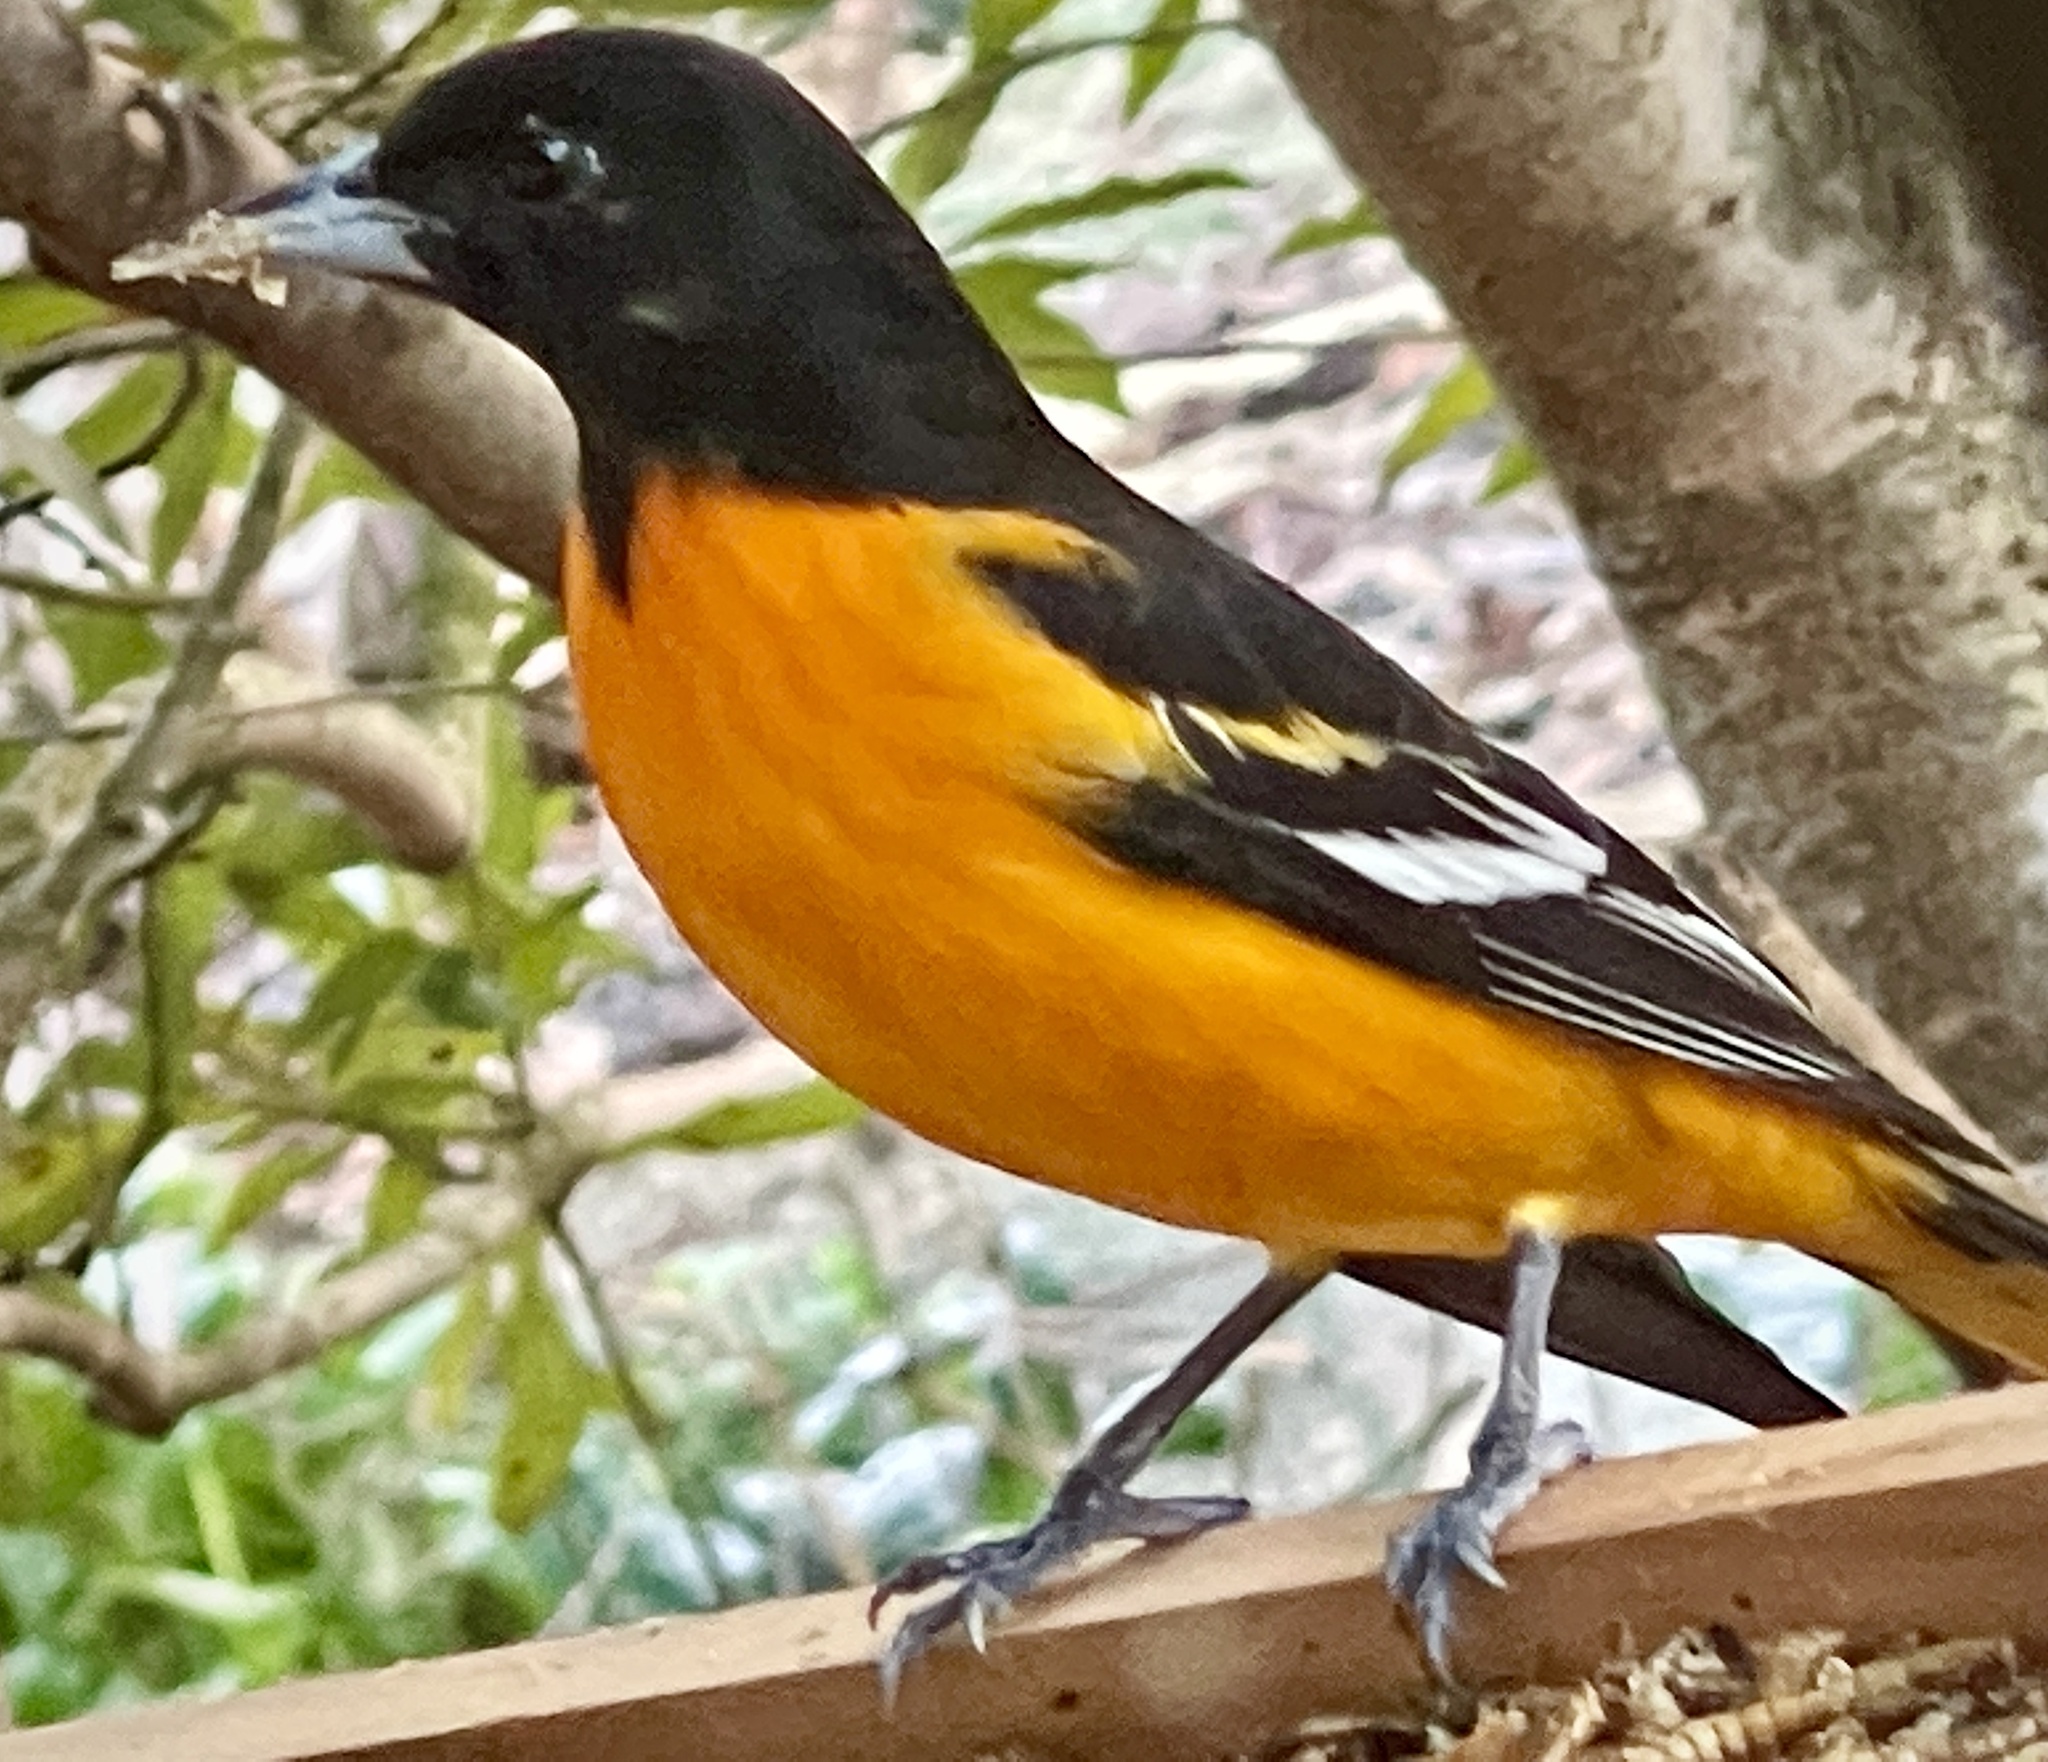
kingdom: Animalia
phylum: Chordata
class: Aves
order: Passeriformes
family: Icteridae
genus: Icterus
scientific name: Icterus galbula
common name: Baltimore oriole
